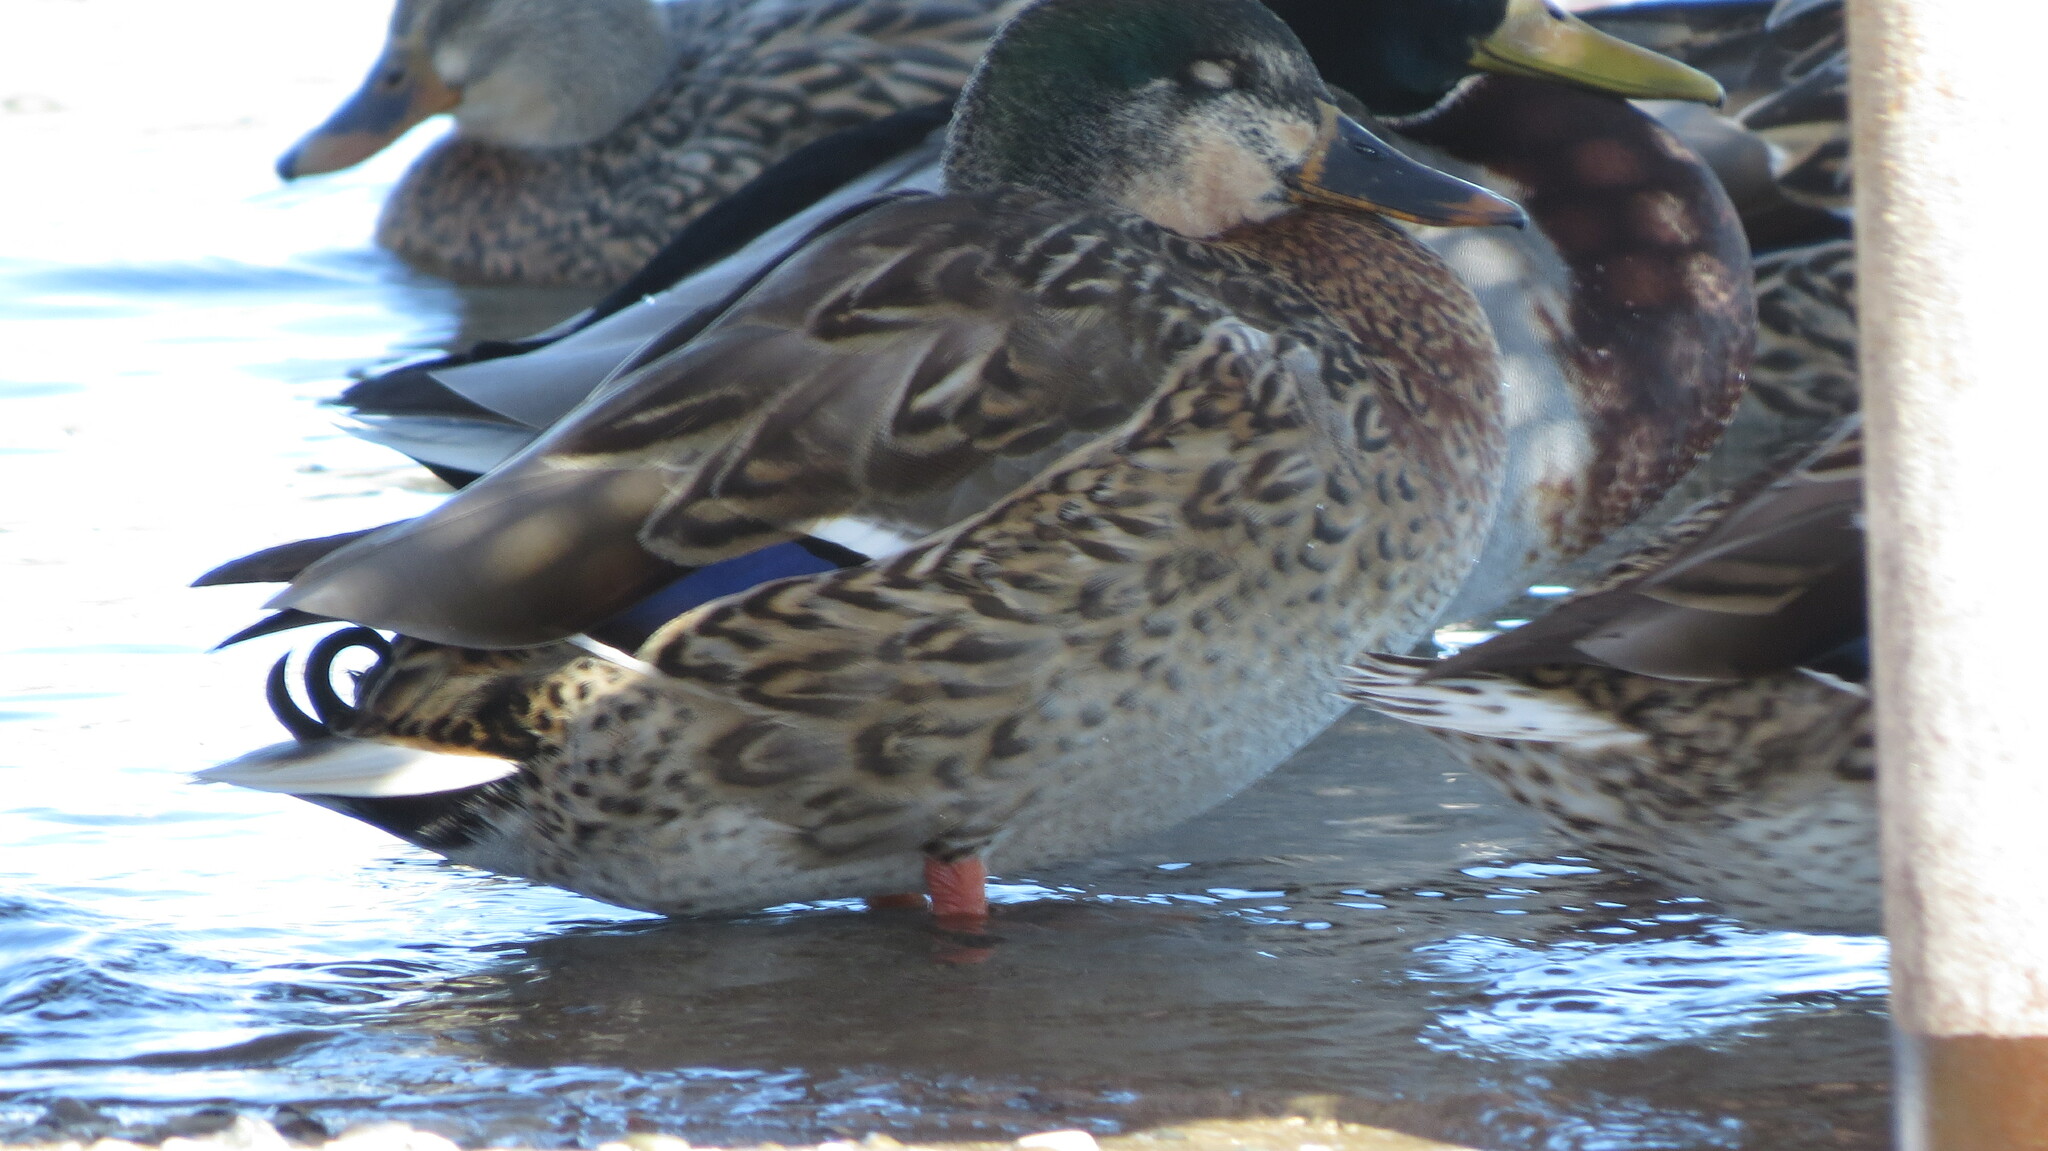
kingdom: Animalia
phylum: Chordata
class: Aves
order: Anseriformes
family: Anatidae
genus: Anas
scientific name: Anas platyrhynchos
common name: Mallard
